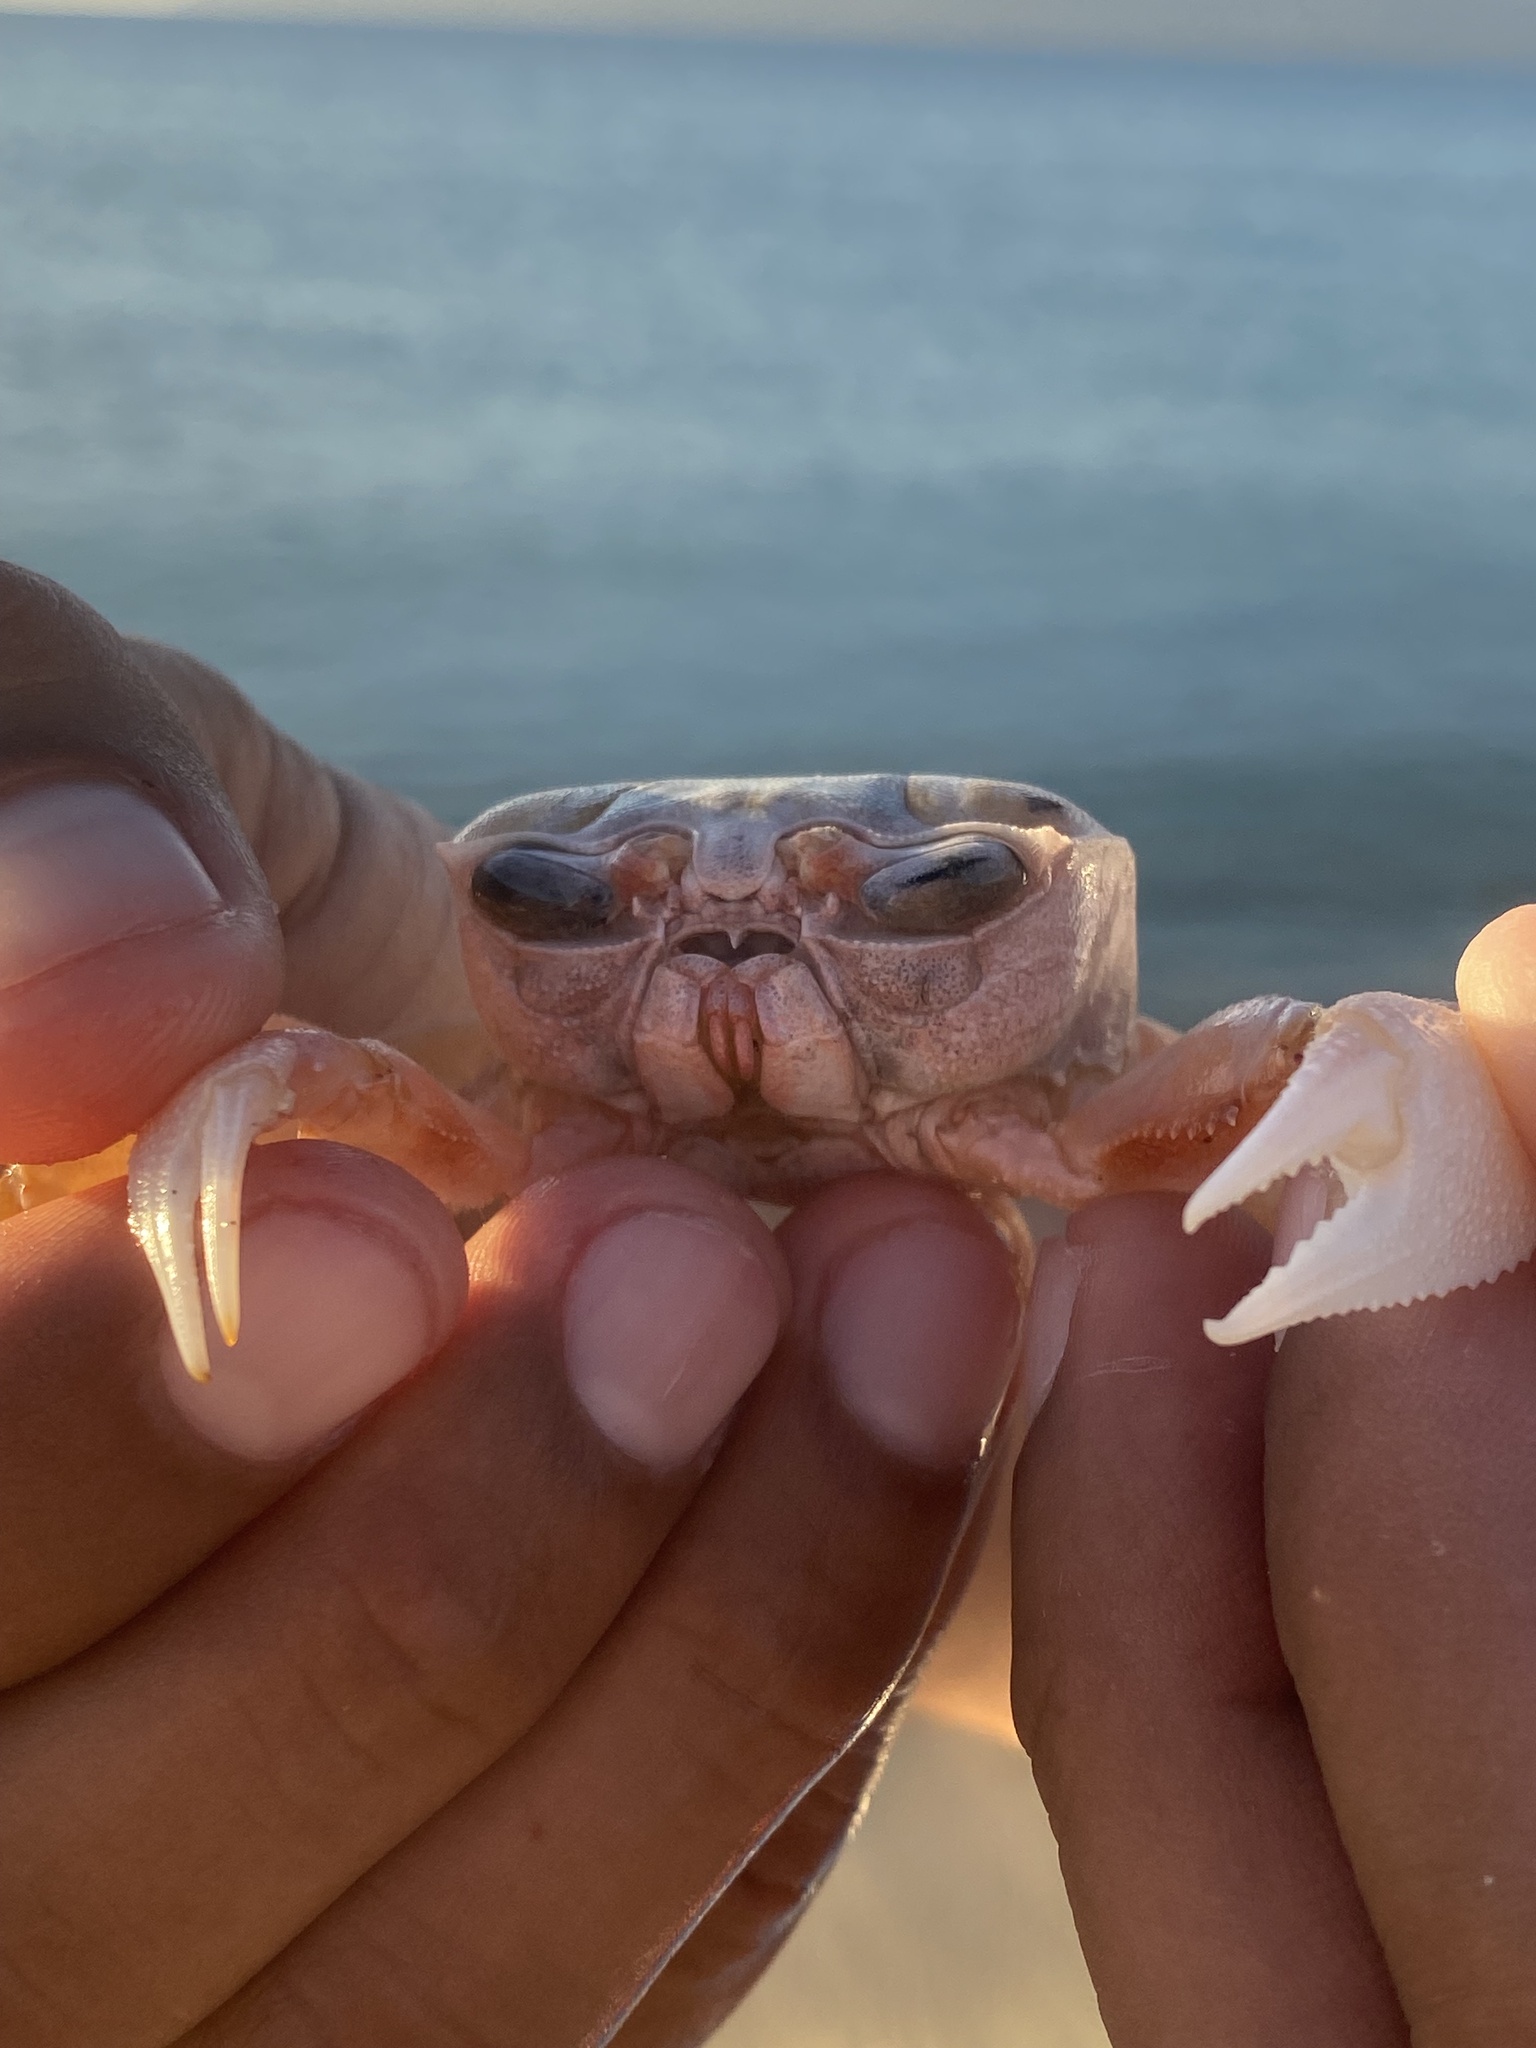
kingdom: Animalia
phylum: Arthropoda
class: Malacostraca
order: Decapoda
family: Ocypodidae
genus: Ocypode
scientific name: Ocypode occidentalis
